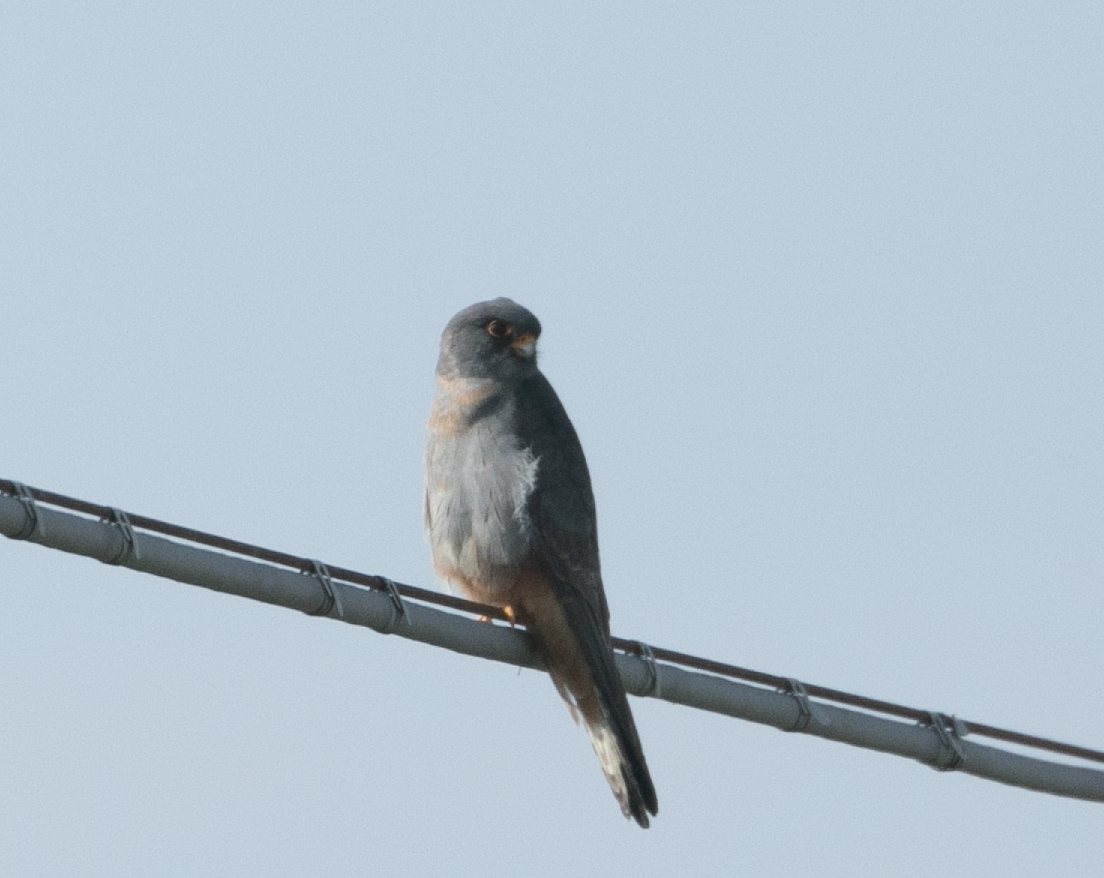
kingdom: Animalia
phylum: Chordata
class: Aves
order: Falconiformes
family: Falconidae
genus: Falco
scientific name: Falco vespertinus
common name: Red-footed falcon
